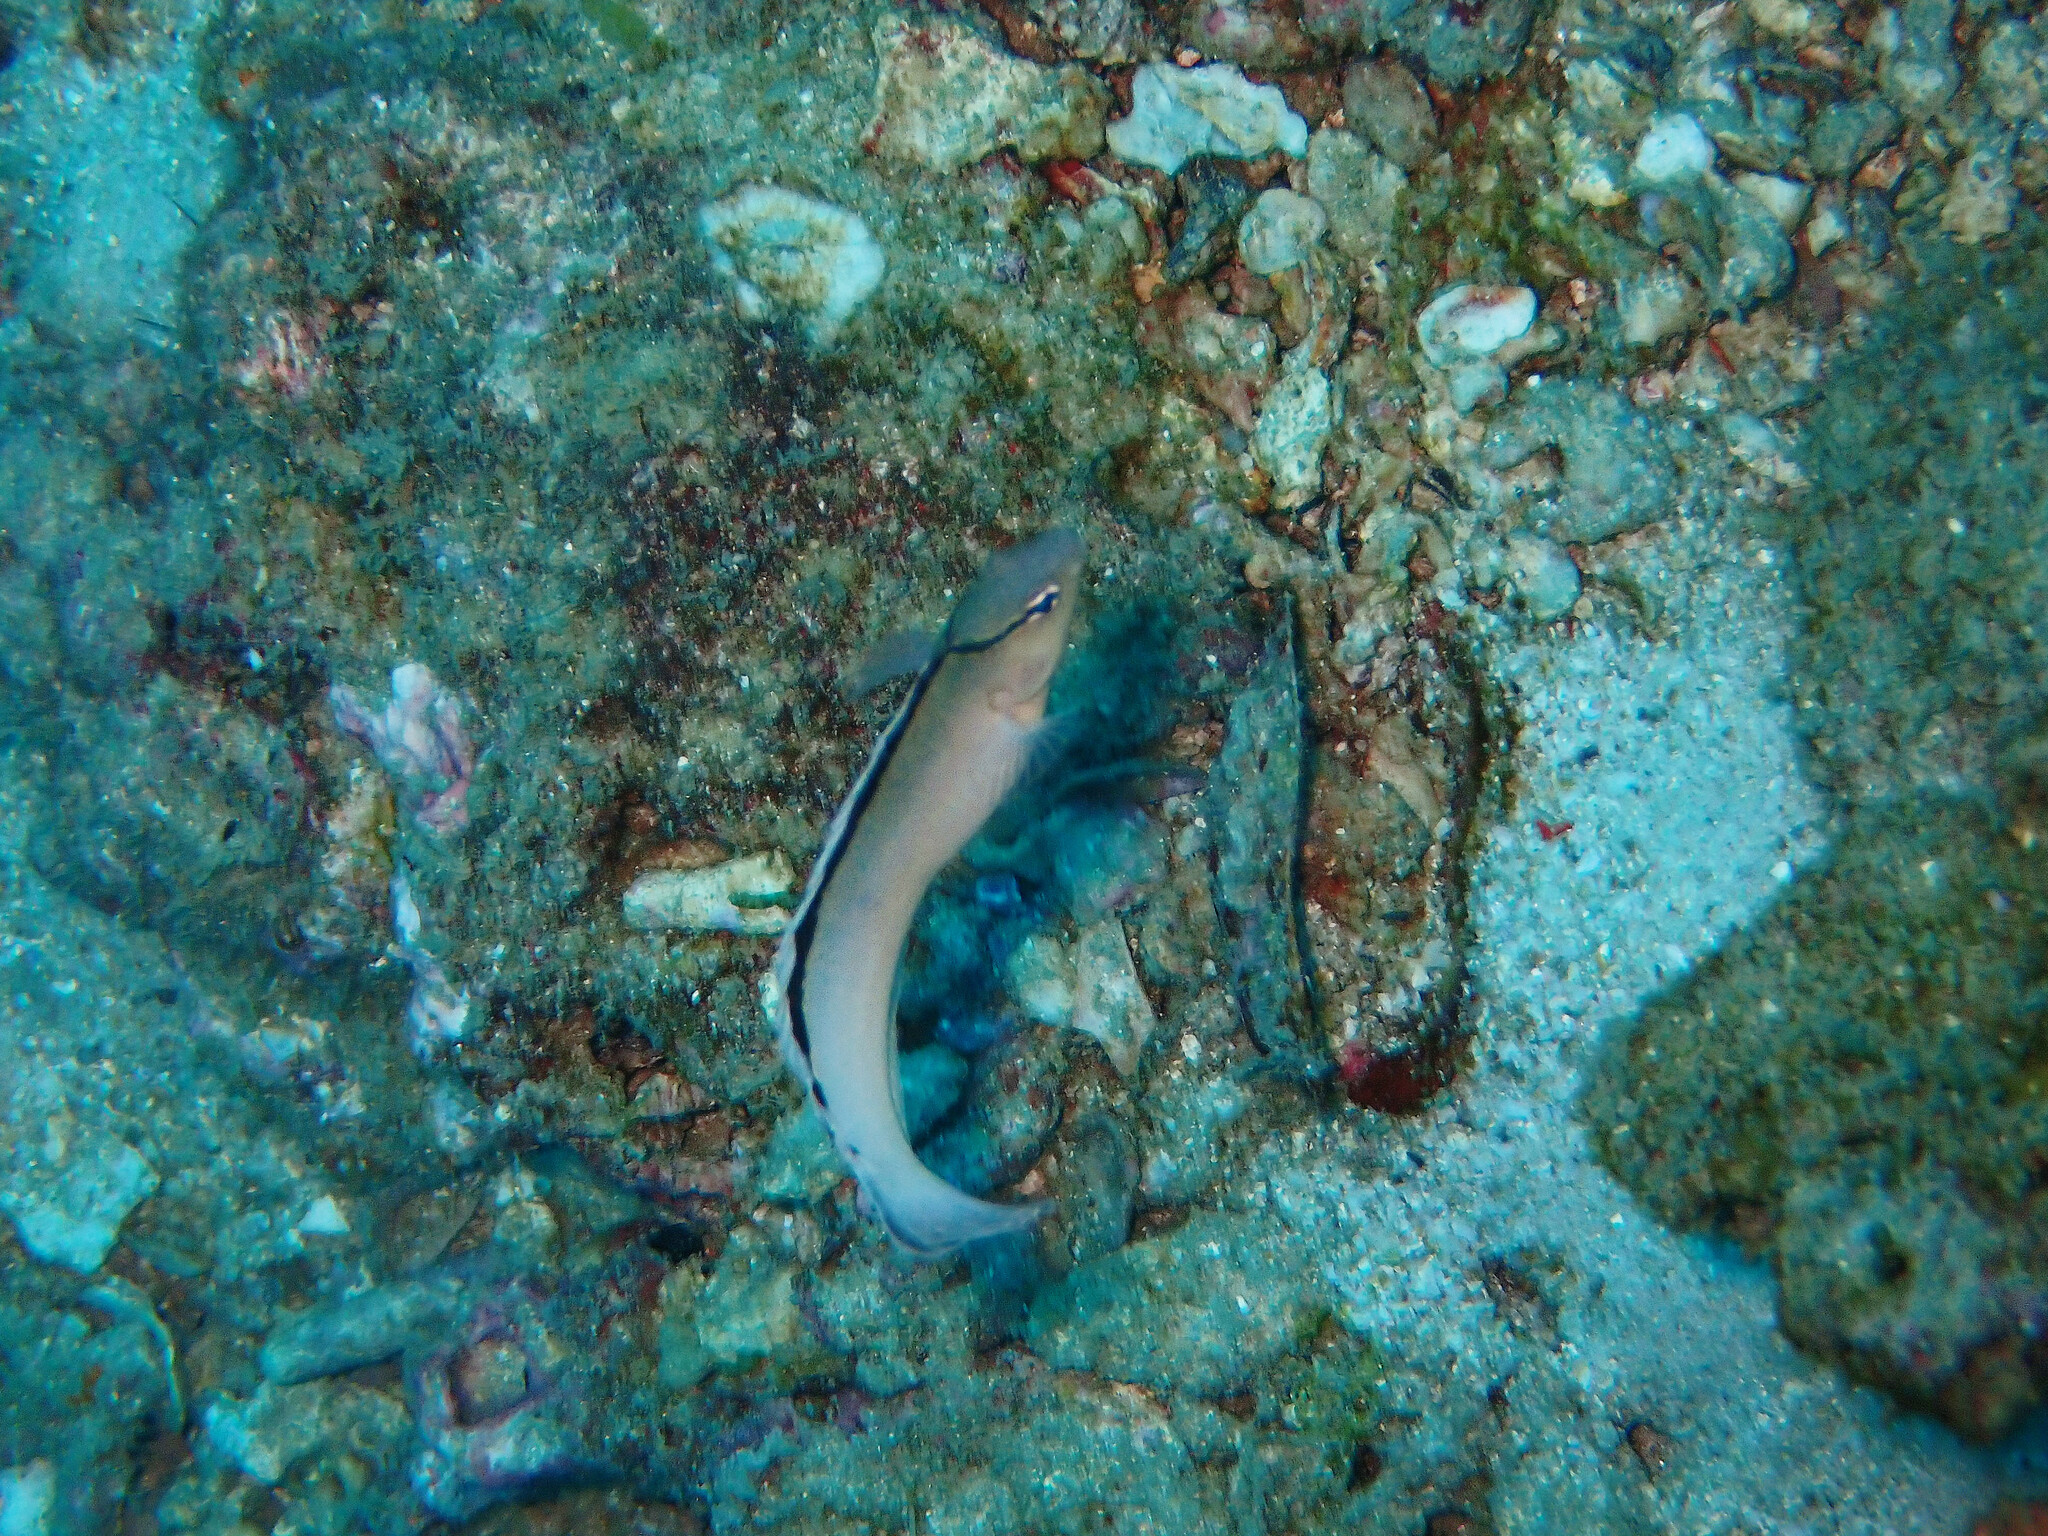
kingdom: Animalia
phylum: Chordata
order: Perciformes
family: Blenniidae
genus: Meiacanthus
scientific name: Meiacanthus smithi
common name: Disco blenny
